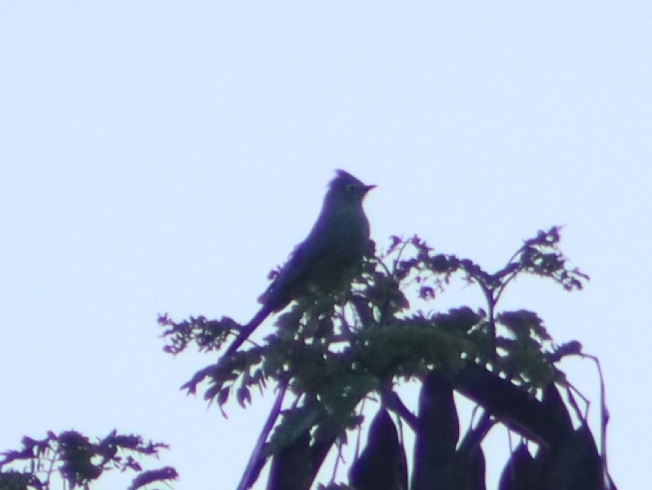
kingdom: Animalia
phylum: Chordata
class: Aves
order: Passeriformes
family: Ptilogonatidae
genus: Ptilogonys
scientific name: Ptilogonys cinereus
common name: Gray silky-flycatcher
